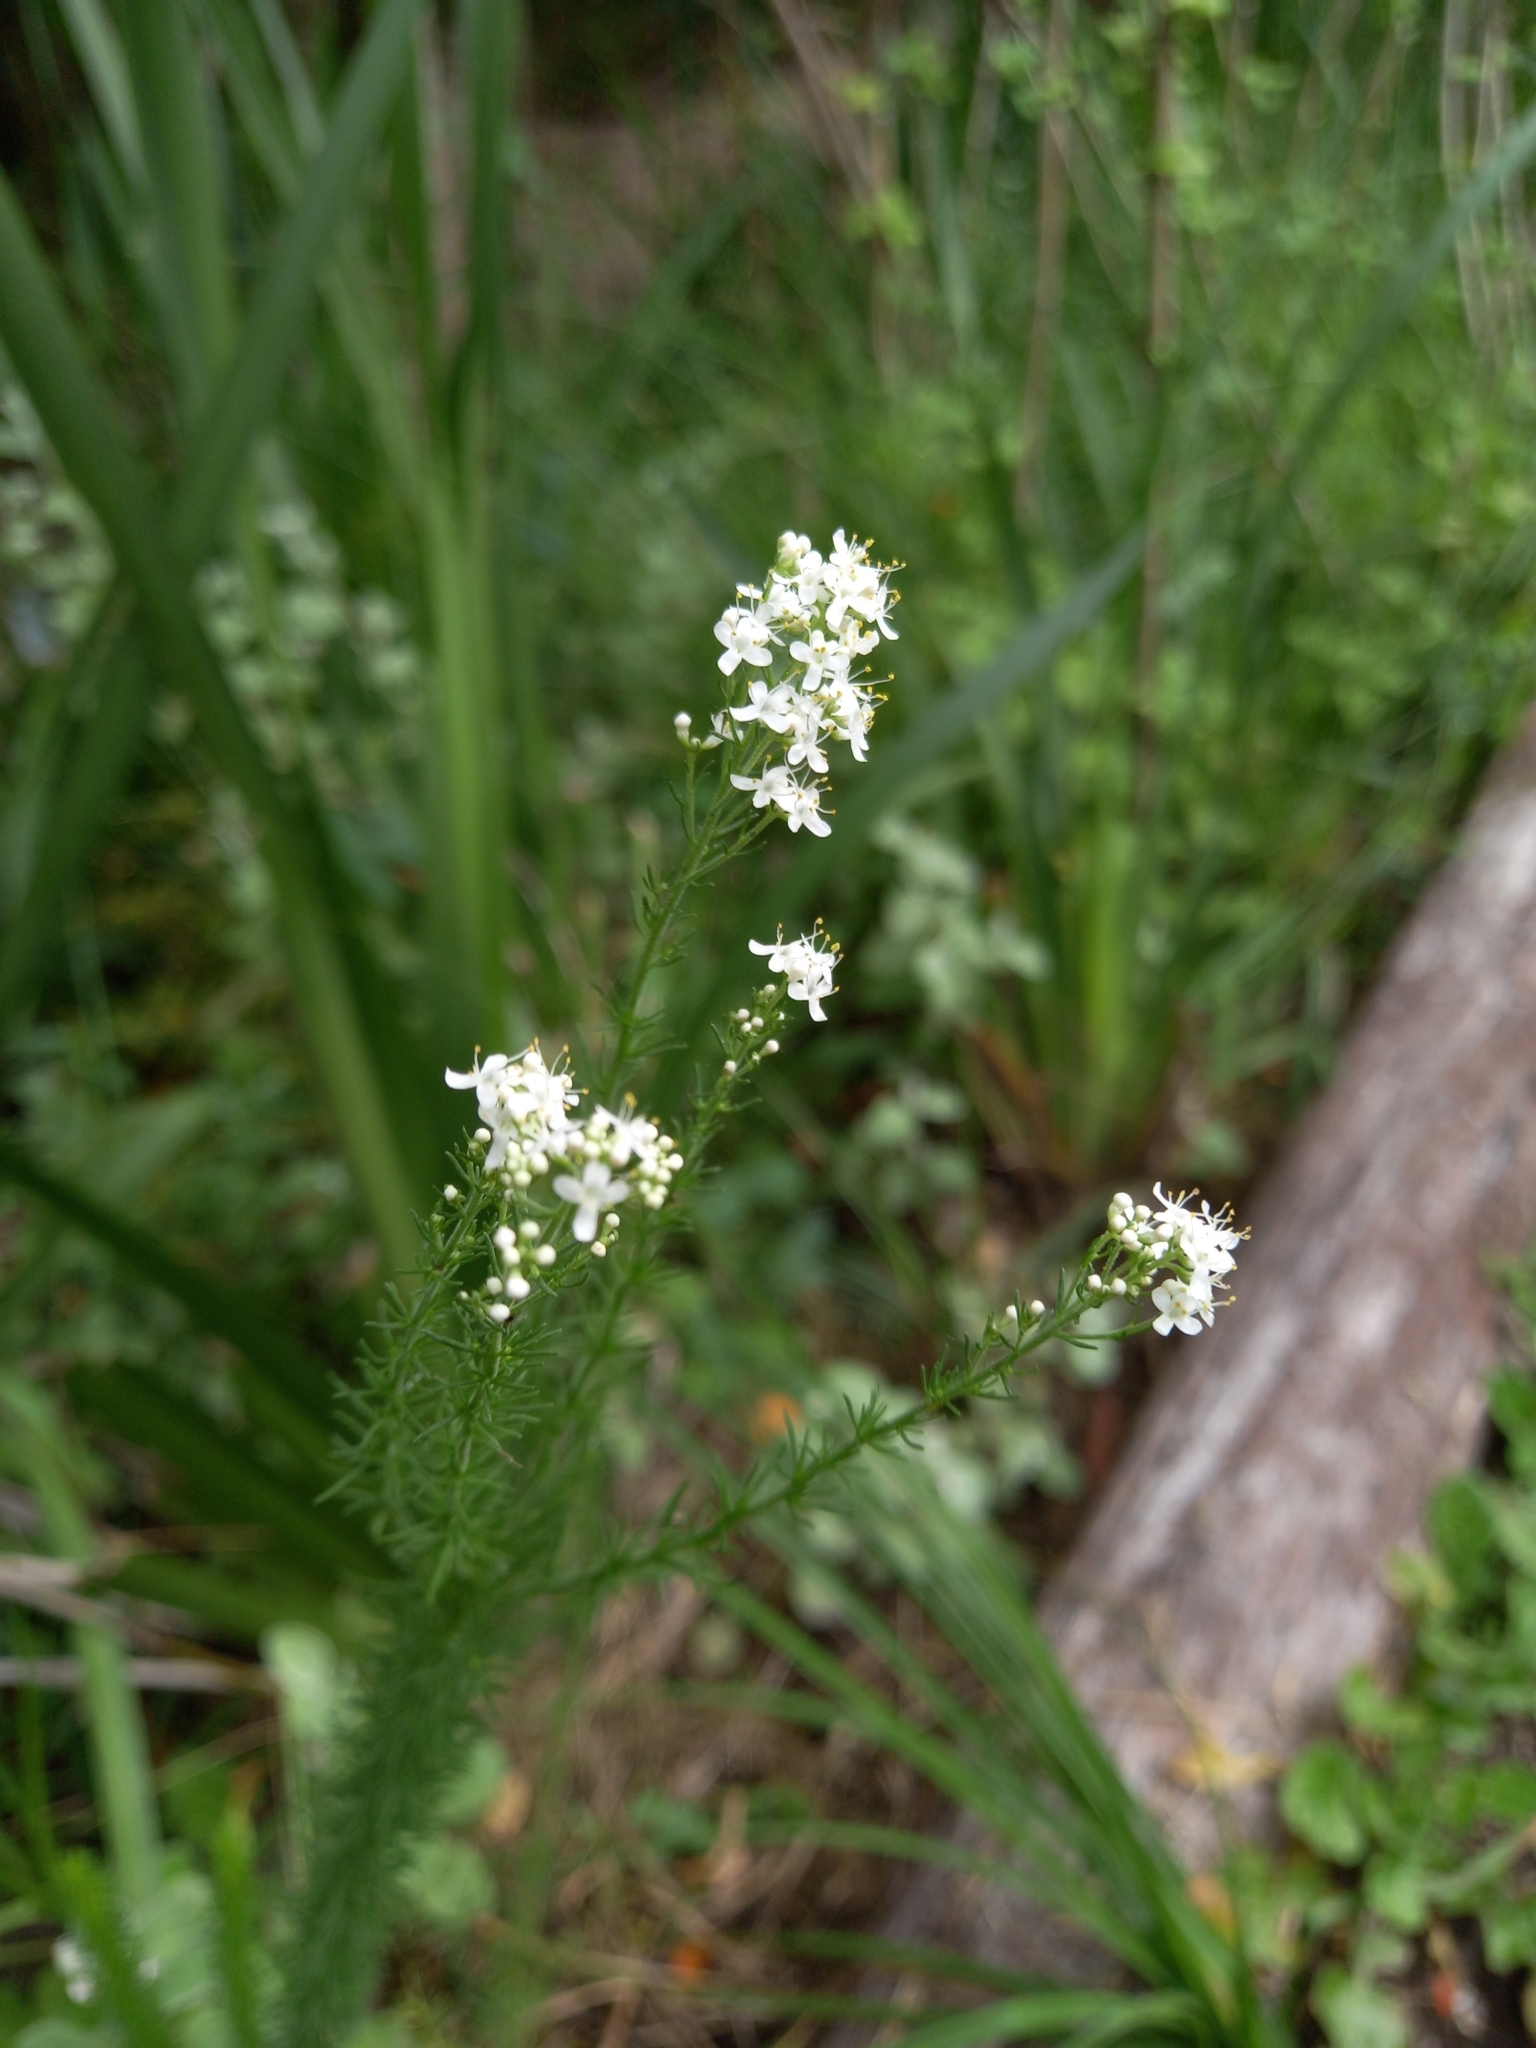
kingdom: Plantae
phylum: Tracheophyta
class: Magnoliopsida
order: Lamiales
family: Scrophulariaceae
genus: Selago
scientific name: Selago corymbosa
